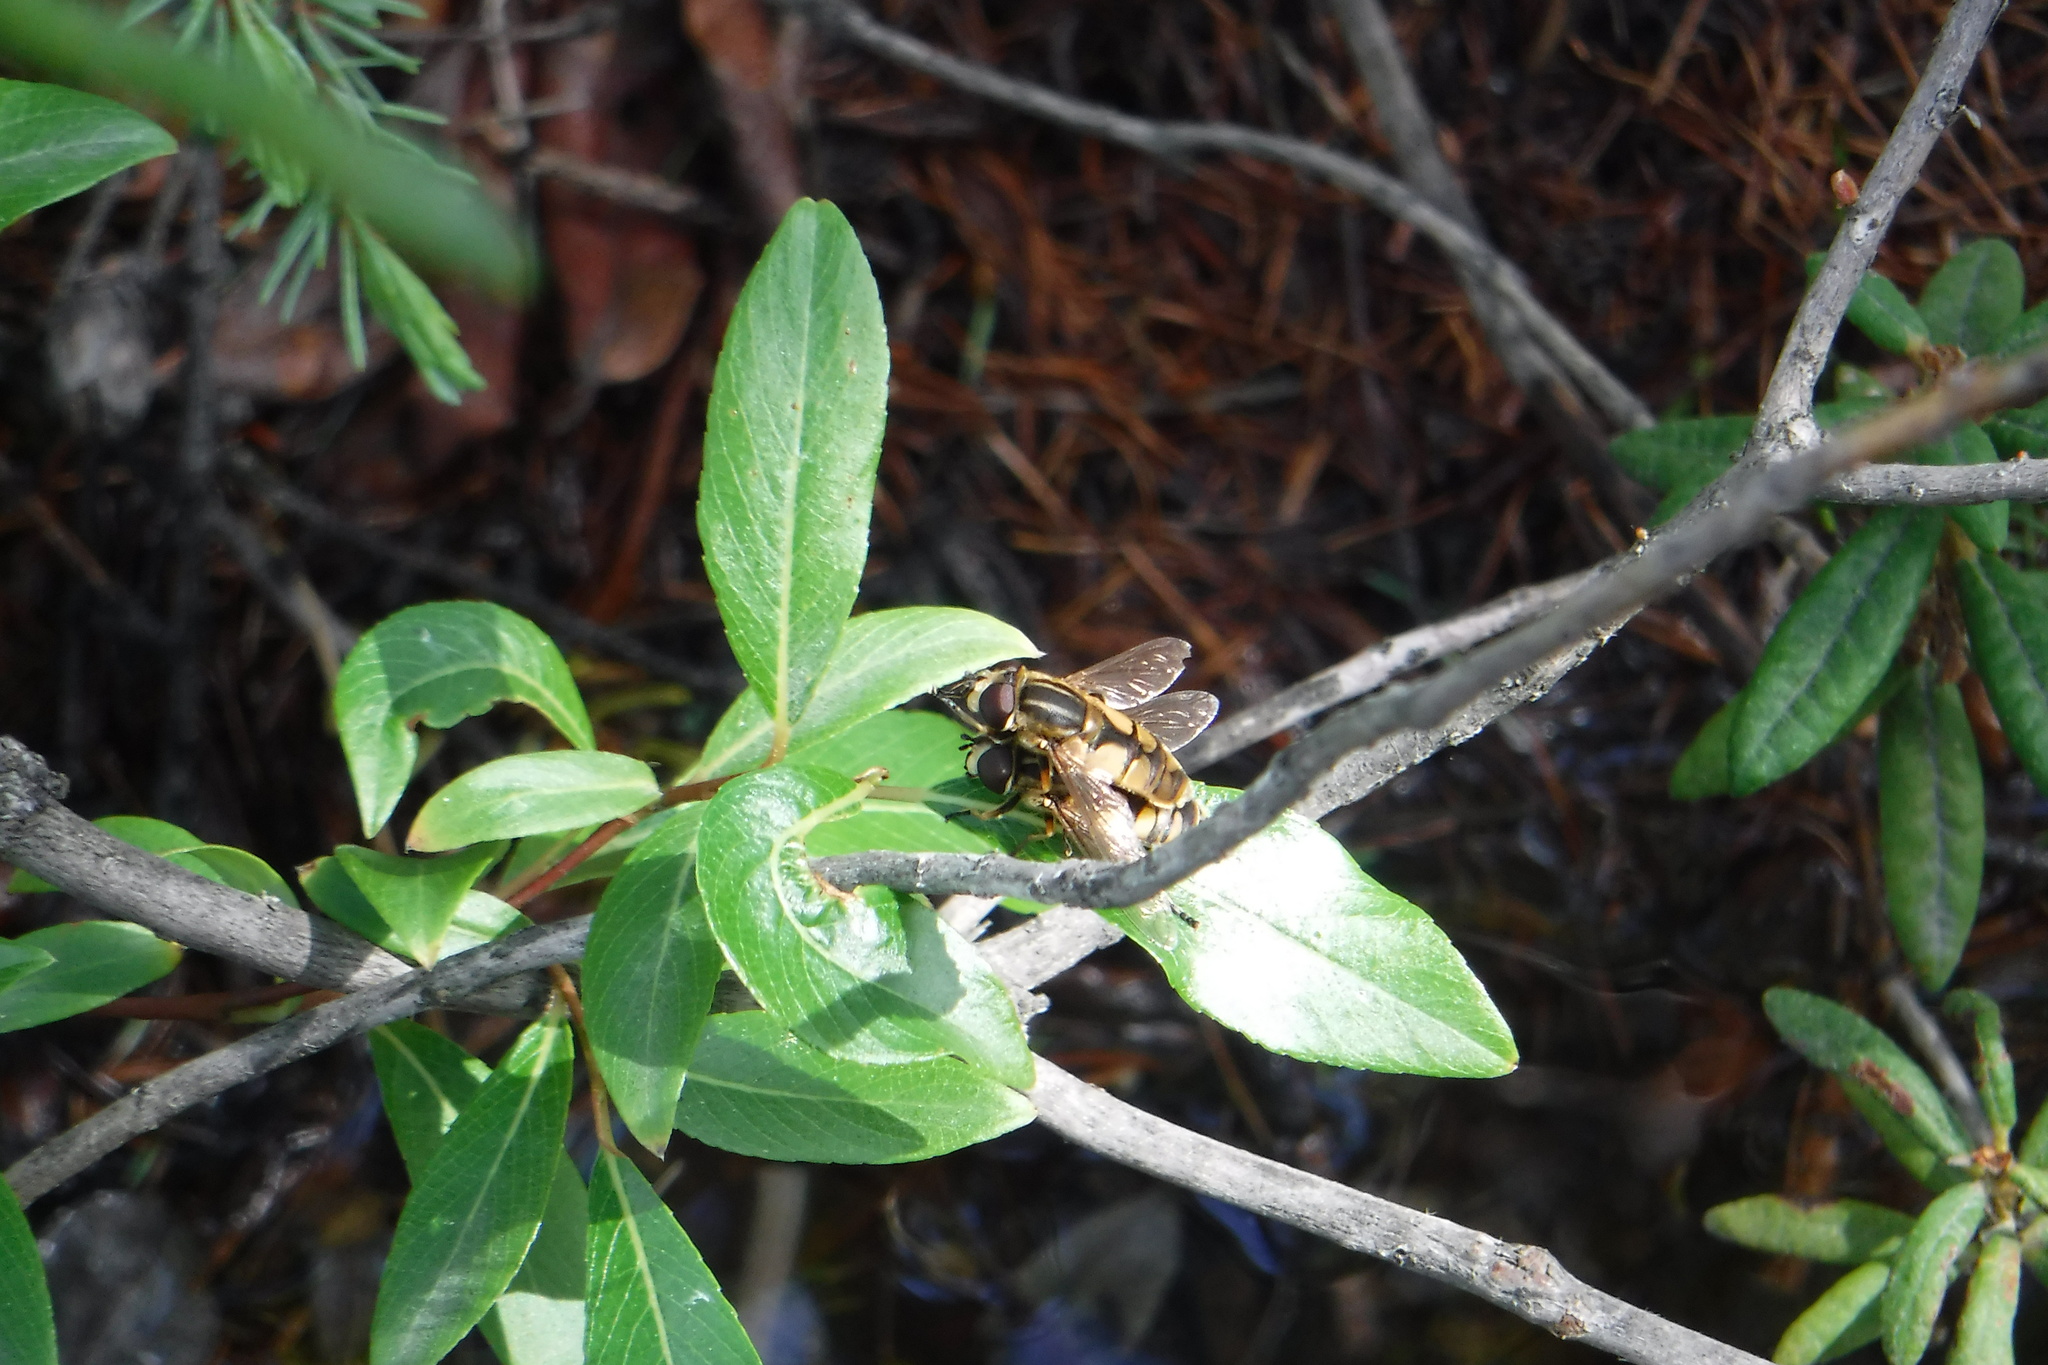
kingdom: Animalia
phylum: Arthropoda
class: Insecta
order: Diptera
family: Syrphidae
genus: Helophilus
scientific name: Helophilus hybridus
